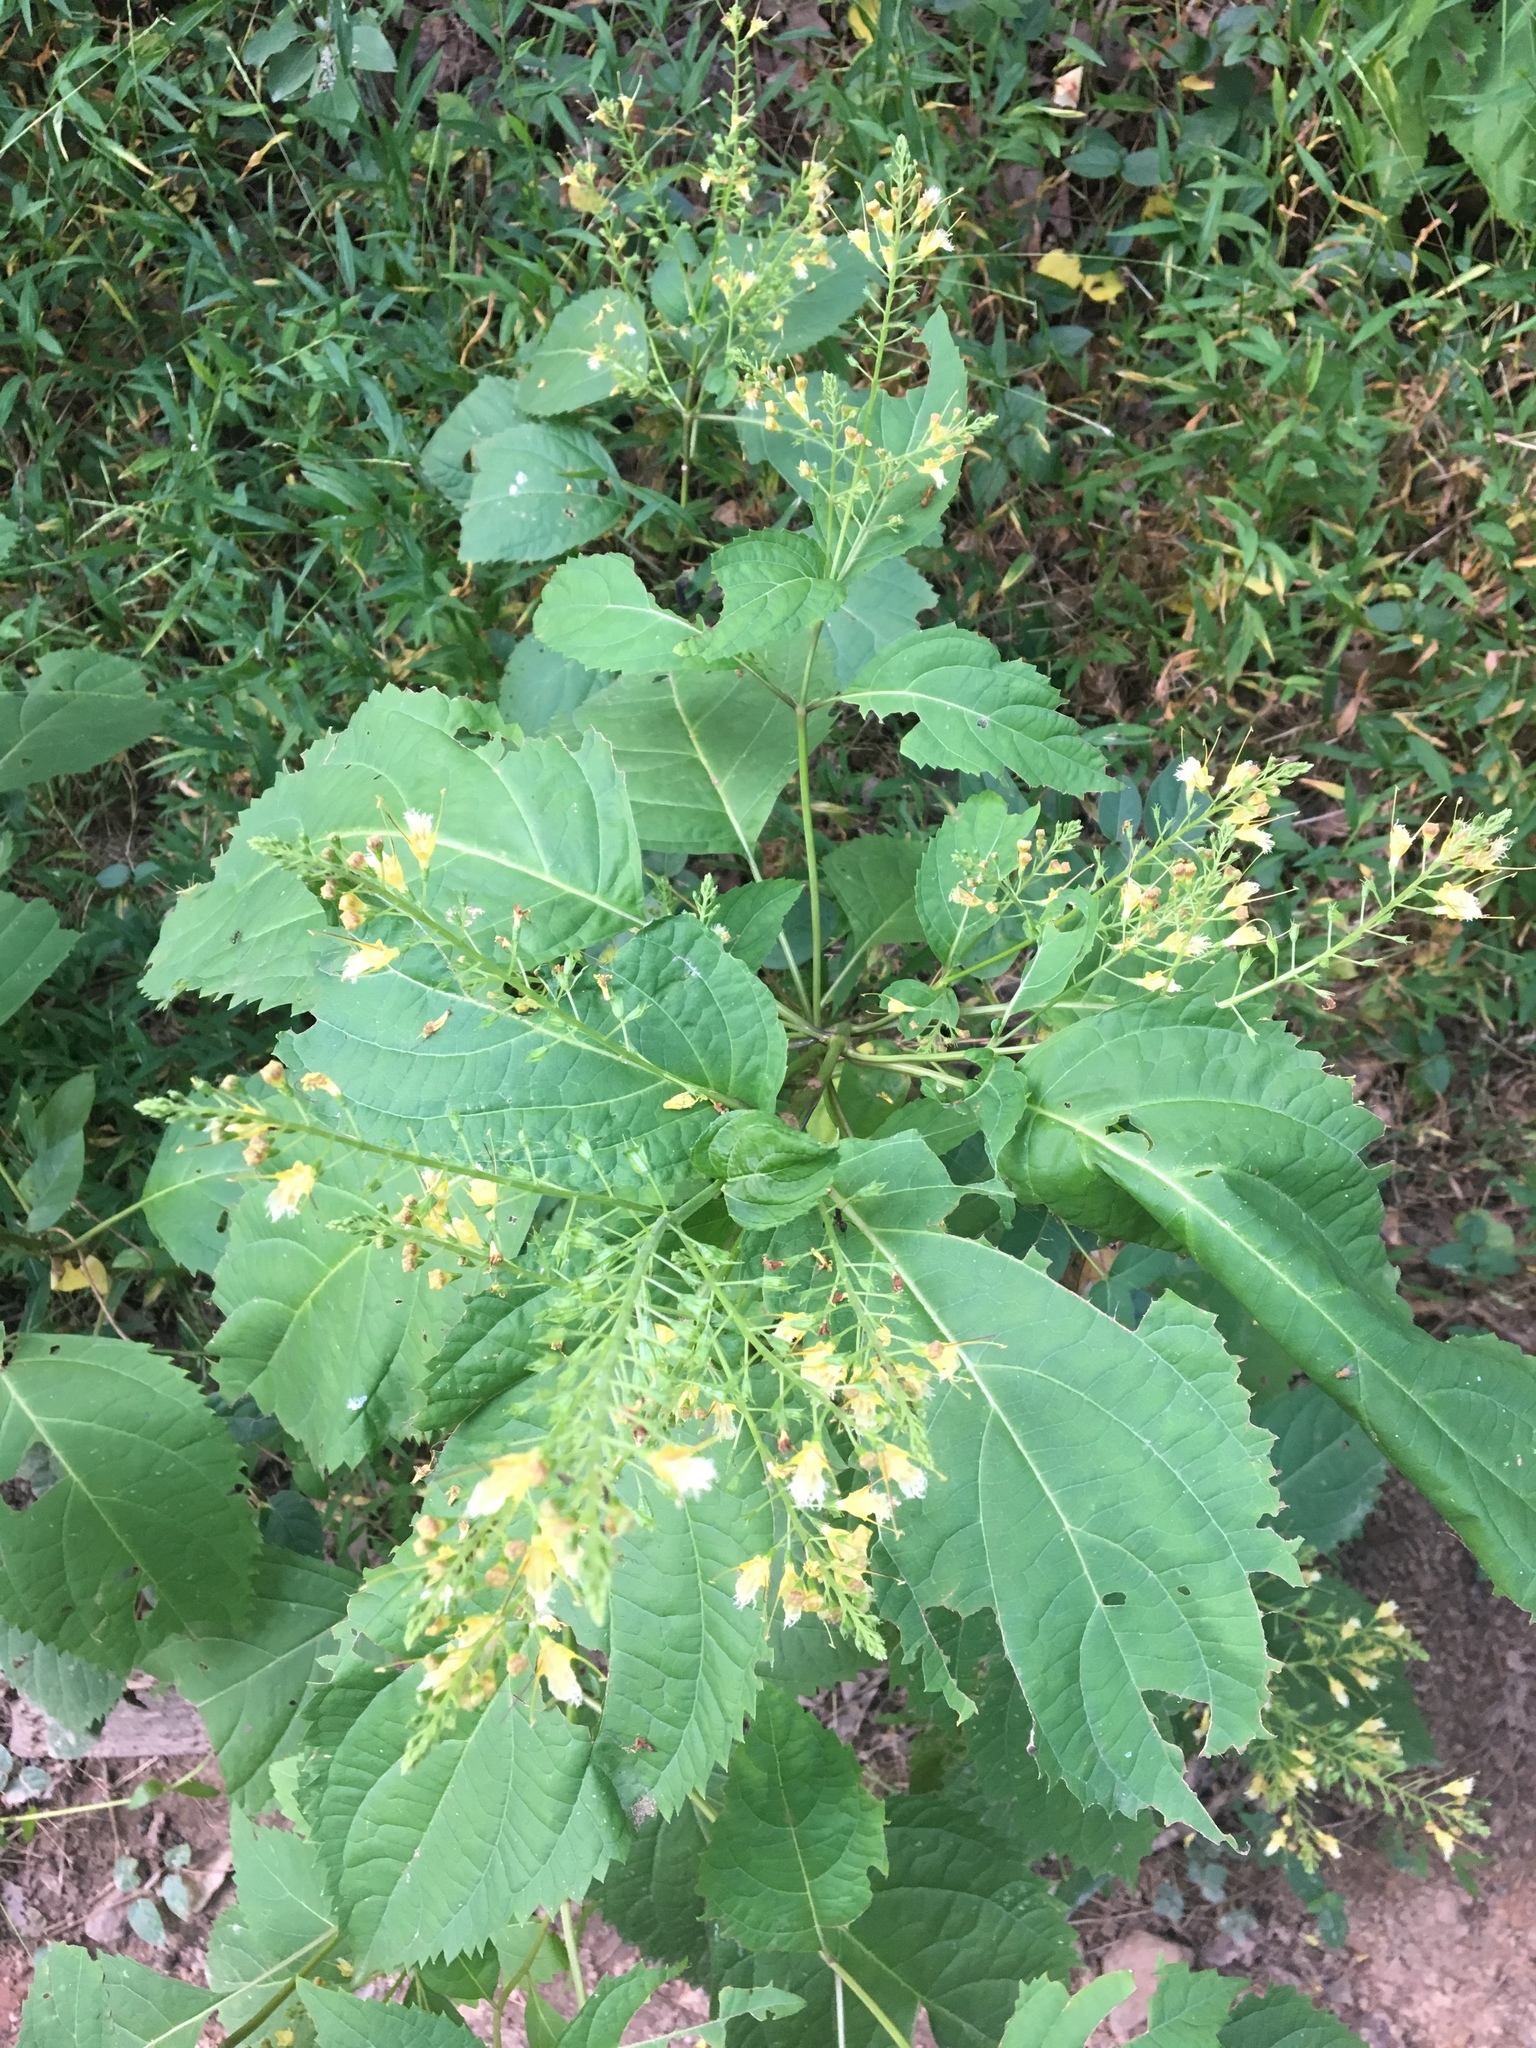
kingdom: Plantae
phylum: Tracheophyta
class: Magnoliopsida
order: Lamiales
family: Lamiaceae
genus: Collinsonia
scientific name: Collinsonia canadensis
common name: Northern horsebalm
